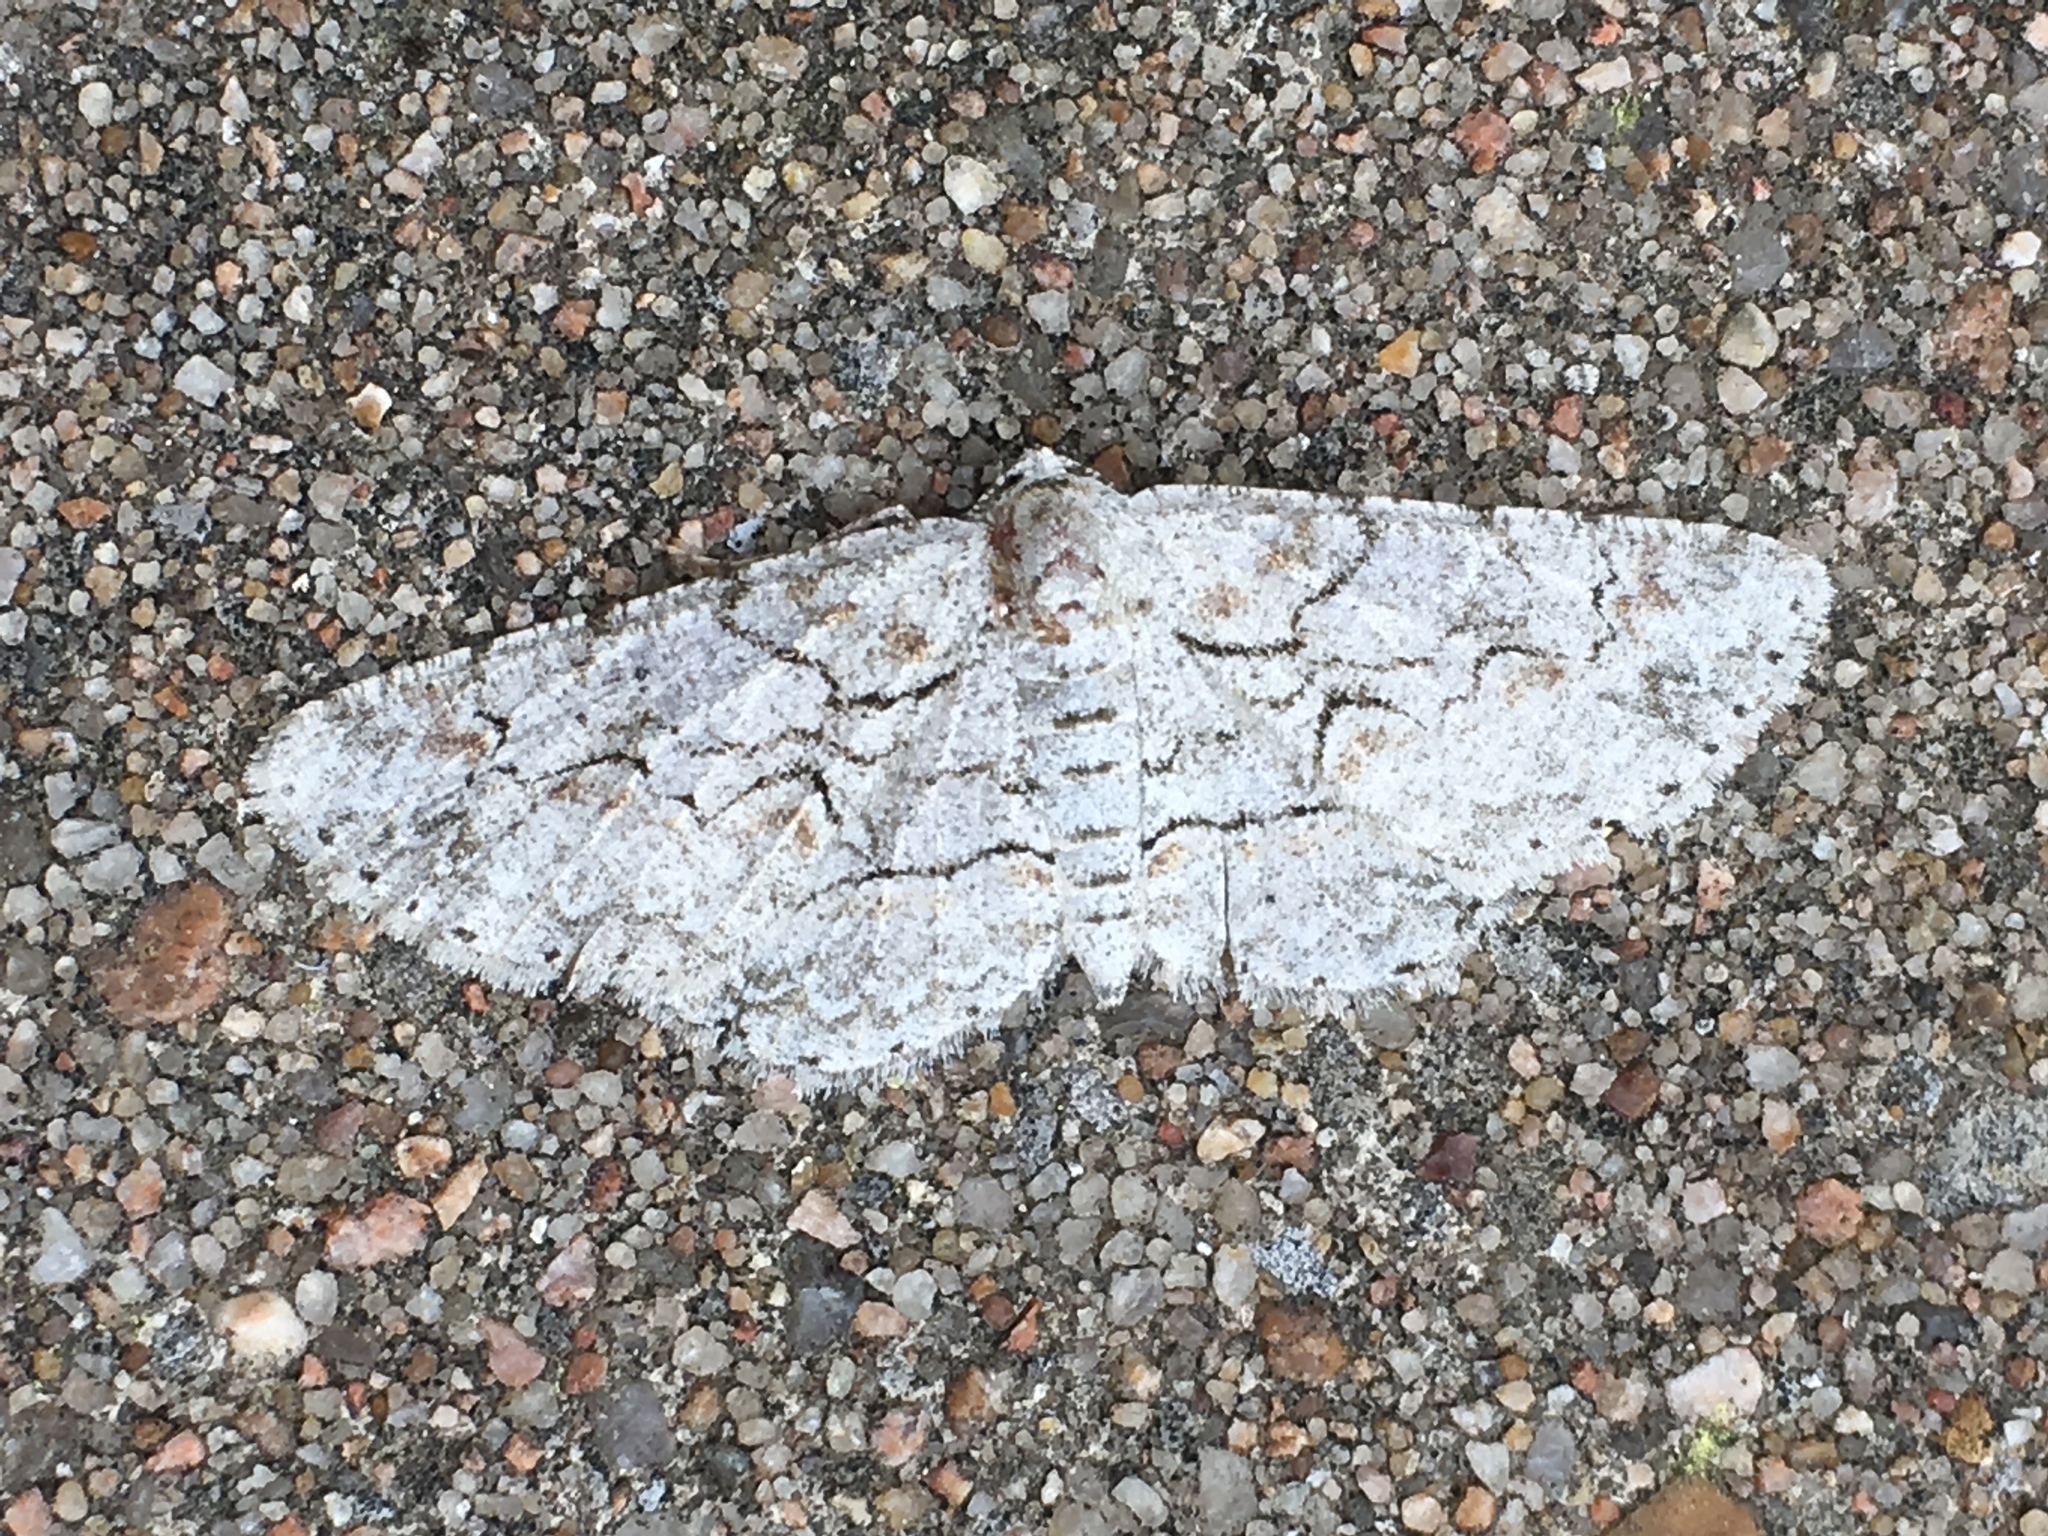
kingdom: Animalia
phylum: Arthropoda
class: Insecta
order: Lepidoptera
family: Geometridae
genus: Iridopsis
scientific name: Iridopsis defectaria
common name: Brown-shaded gray
